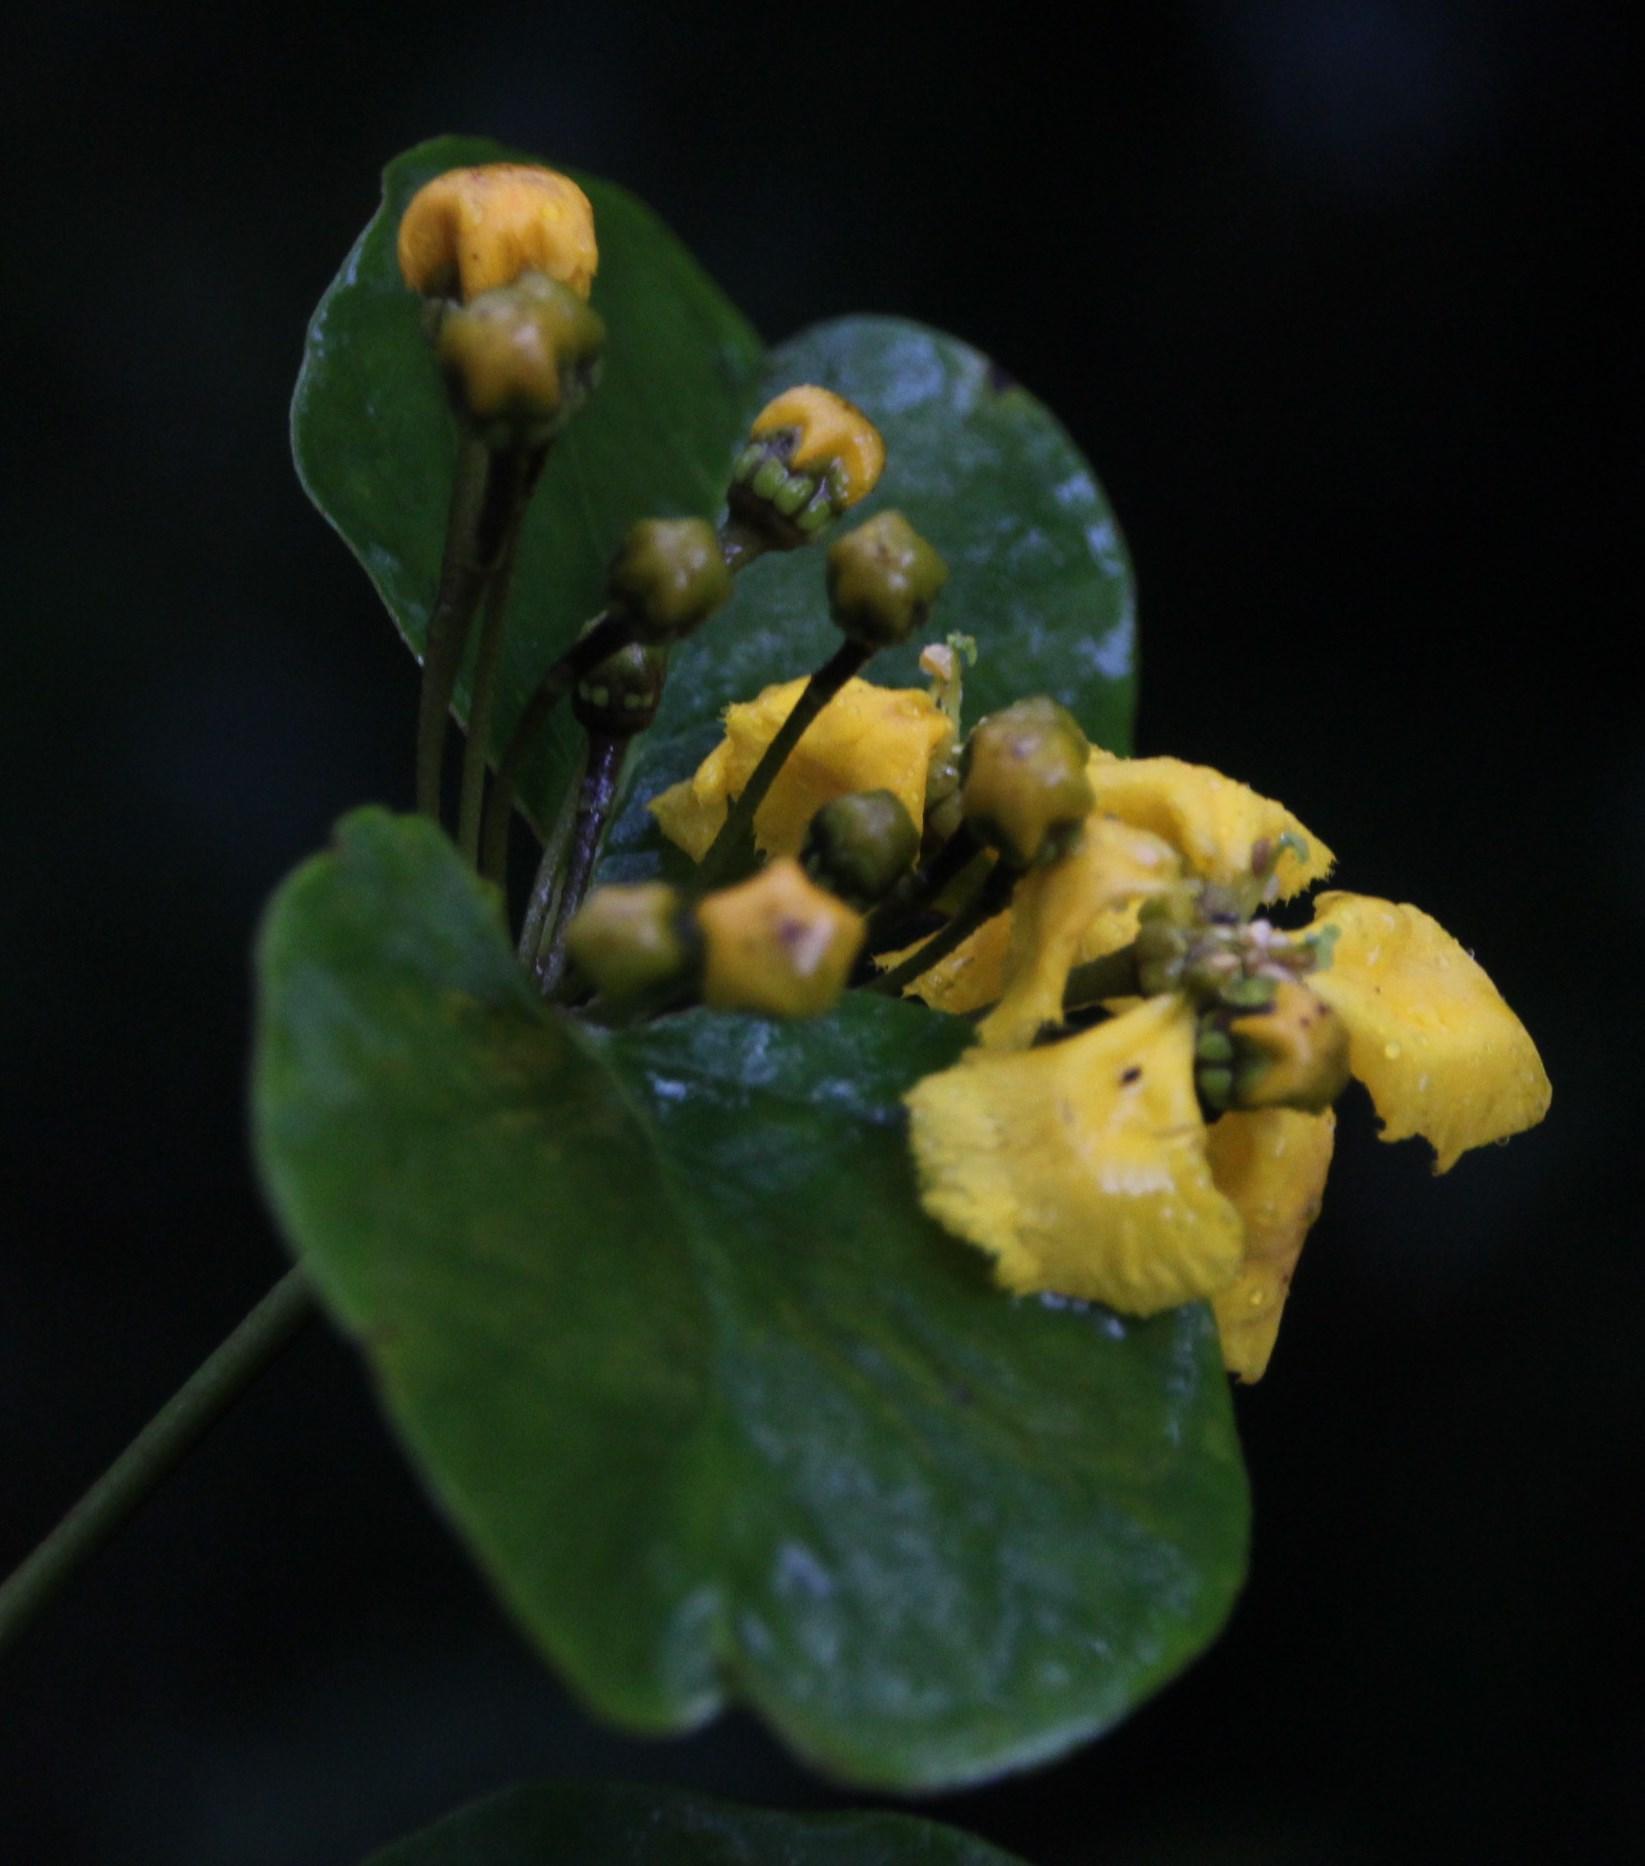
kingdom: Plantae
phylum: Tracheophyta
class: Magnoliopsida
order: Malpighiales
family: Malpighiaceae
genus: Stigmaphyllon
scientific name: Stigmaphyllon cuzcanum
